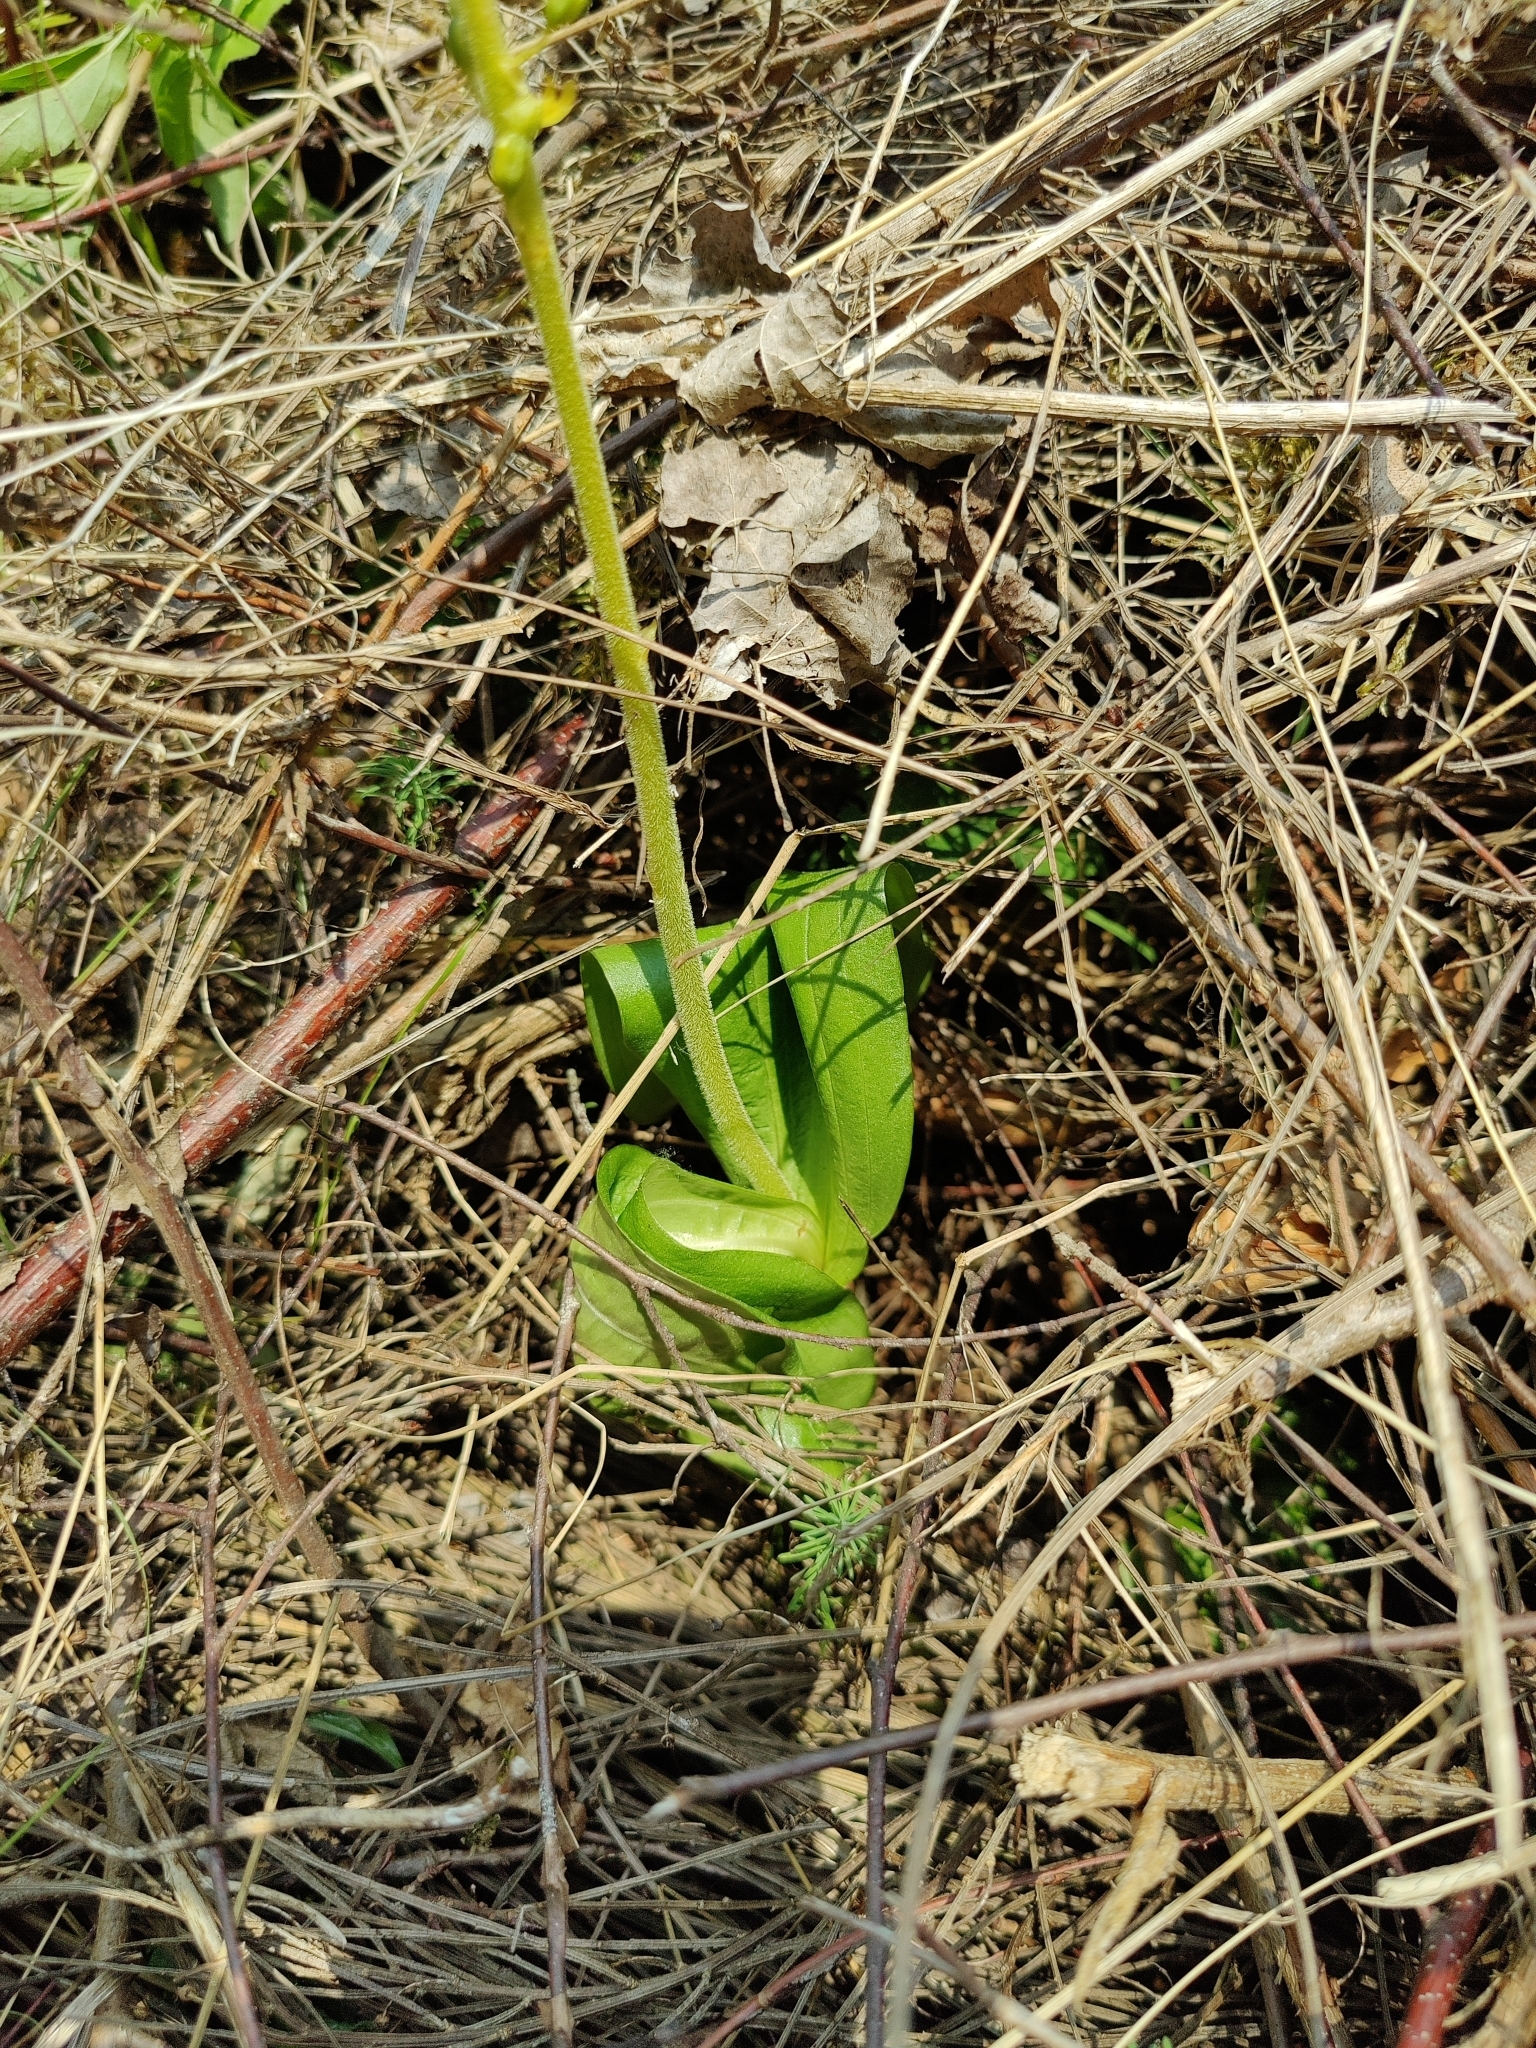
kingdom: Plantae
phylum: Tracheophyta
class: Liliopsida
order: Asparagales
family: Orchidaceae
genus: Neottia
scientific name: Neottia ovata
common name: Common twayblade
